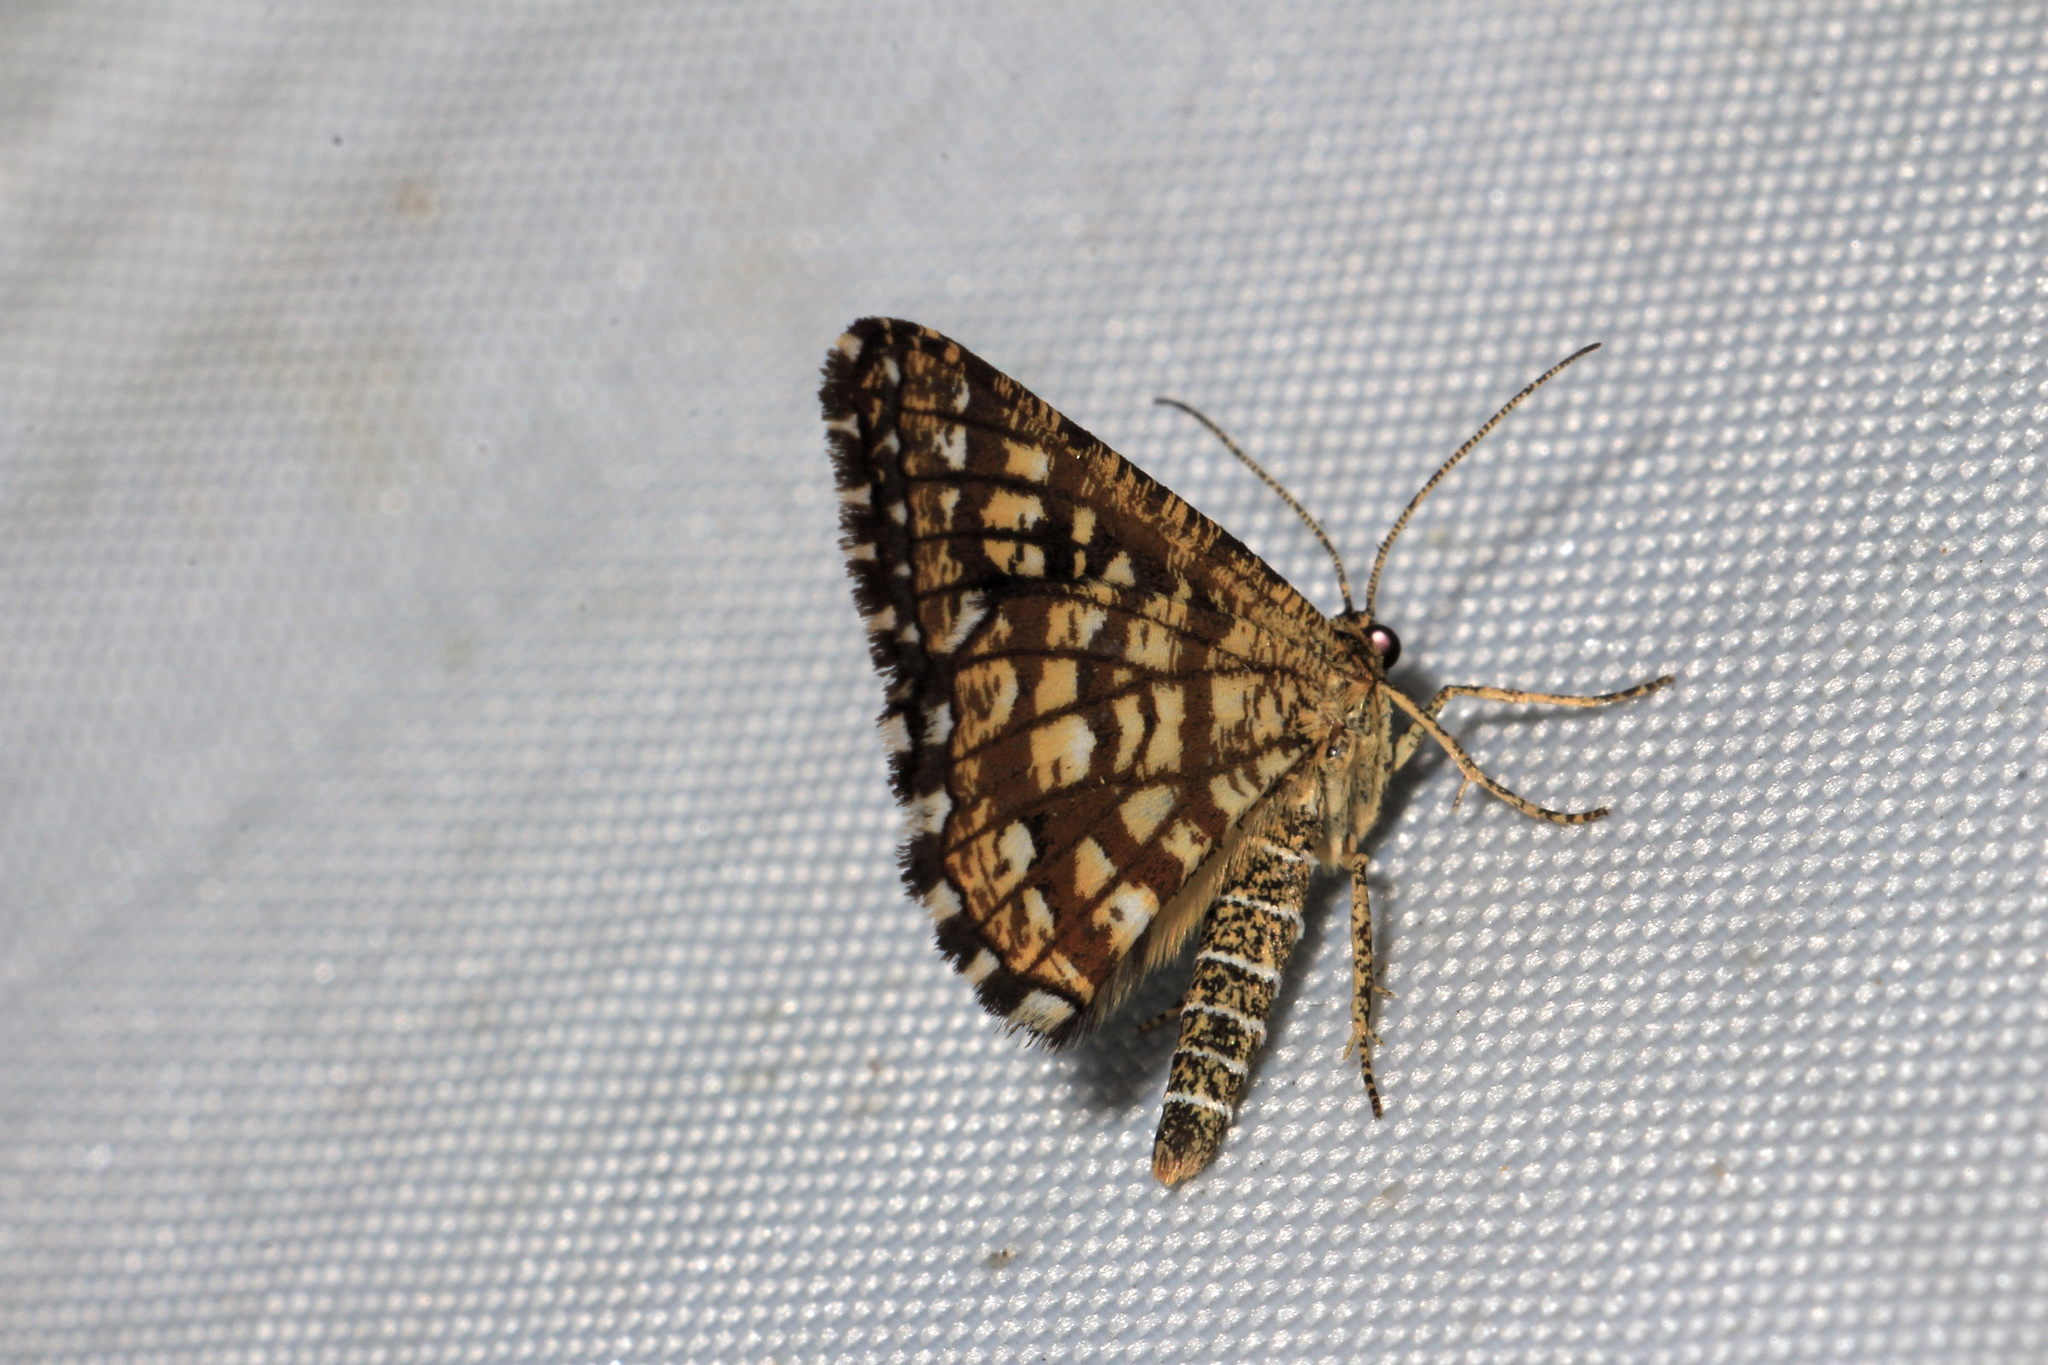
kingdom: Animalia
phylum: Arthropoda
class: Insecta
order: Lepidoptera
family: Geometridae
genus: Chiasmia
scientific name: Chiasmia clathrata
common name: Latticed heath
